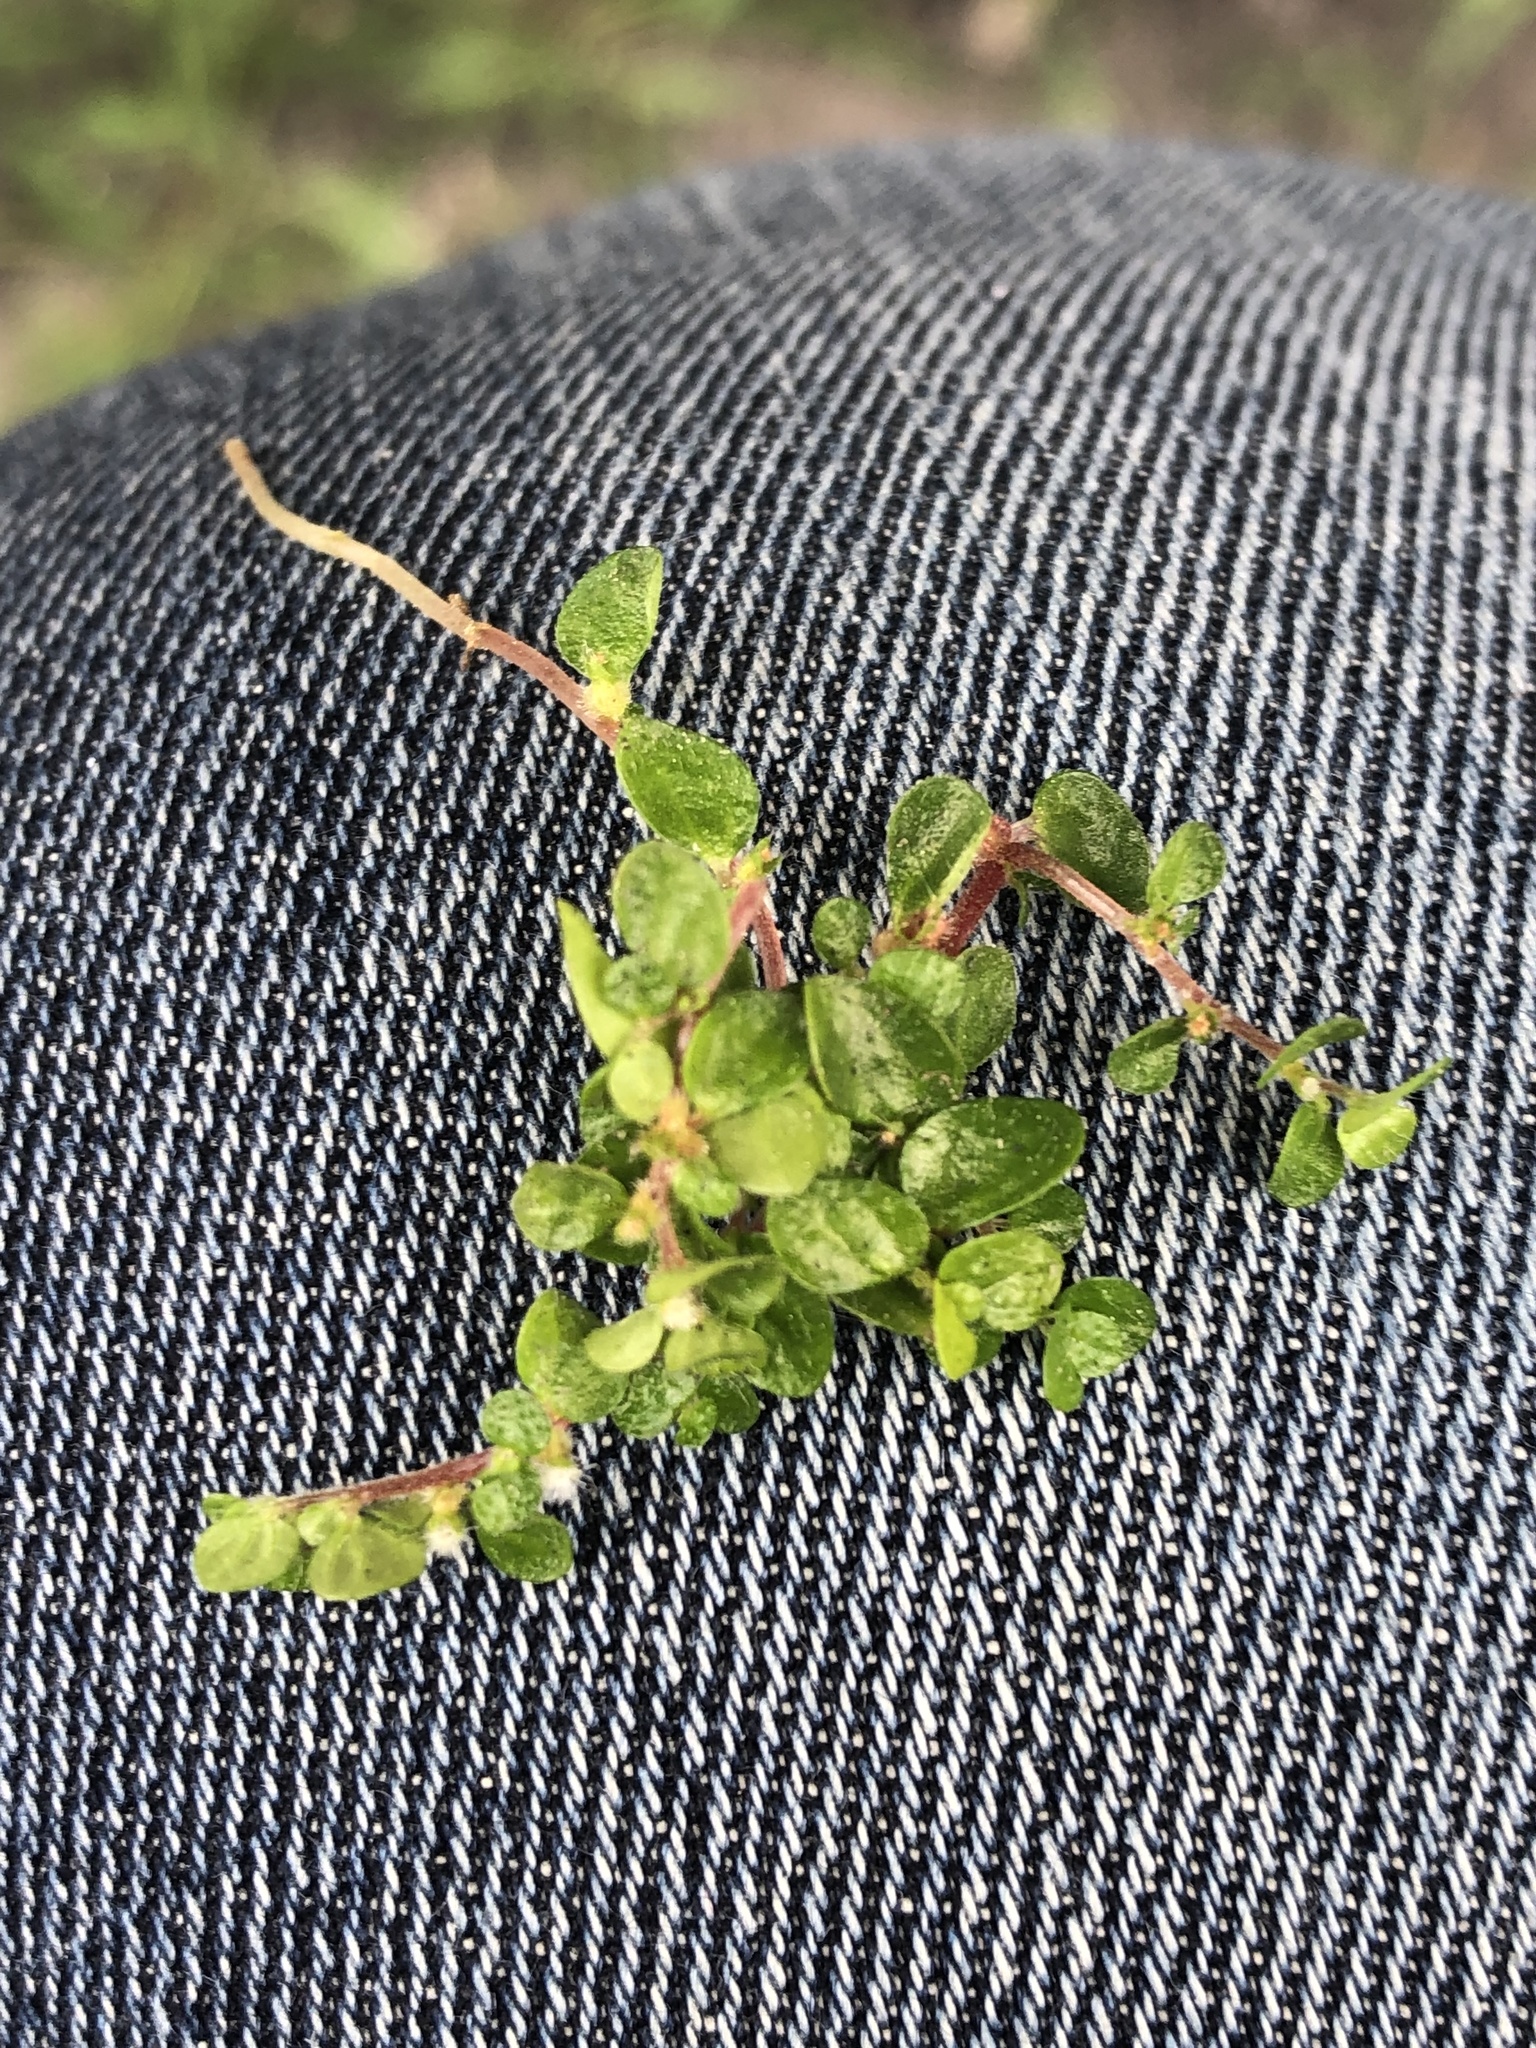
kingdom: Plantae
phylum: Tracheophyta
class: Magnoliopsida
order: Rosales
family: Urticaceae
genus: Soleirolia
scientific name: Soleirolia soleirolii
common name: Mind-your-own-business
